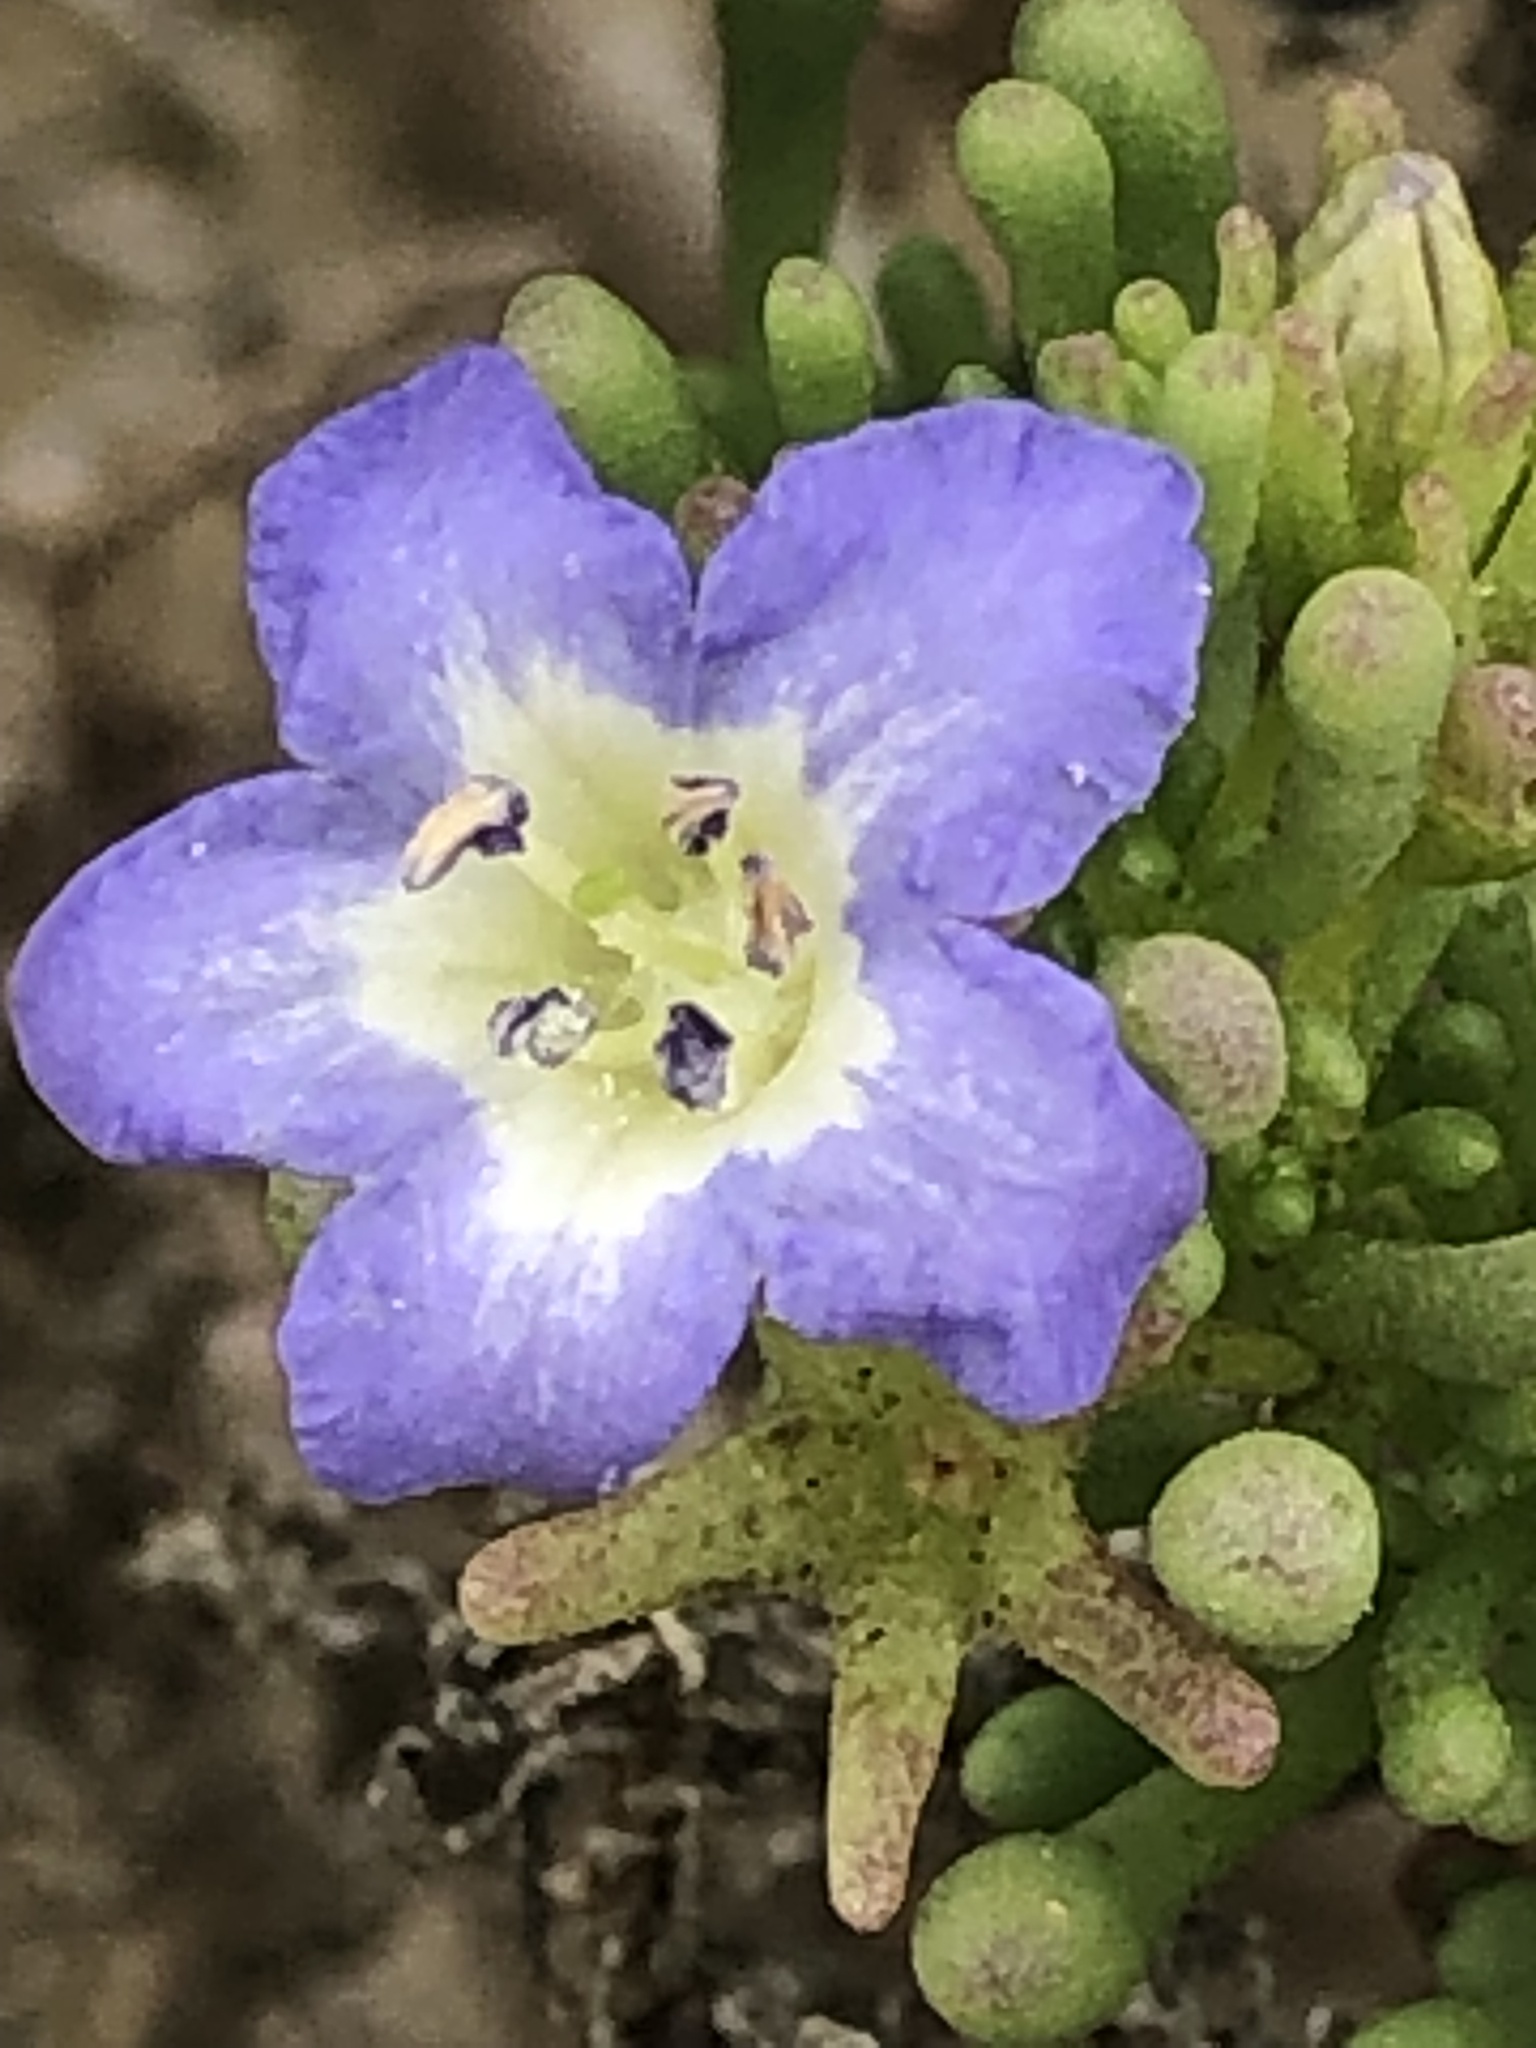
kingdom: Plantae
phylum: Tracheophyta
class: Magnoliopsida
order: Solanales
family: Solanaceae
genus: Nolana
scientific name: Nolana divaricata
